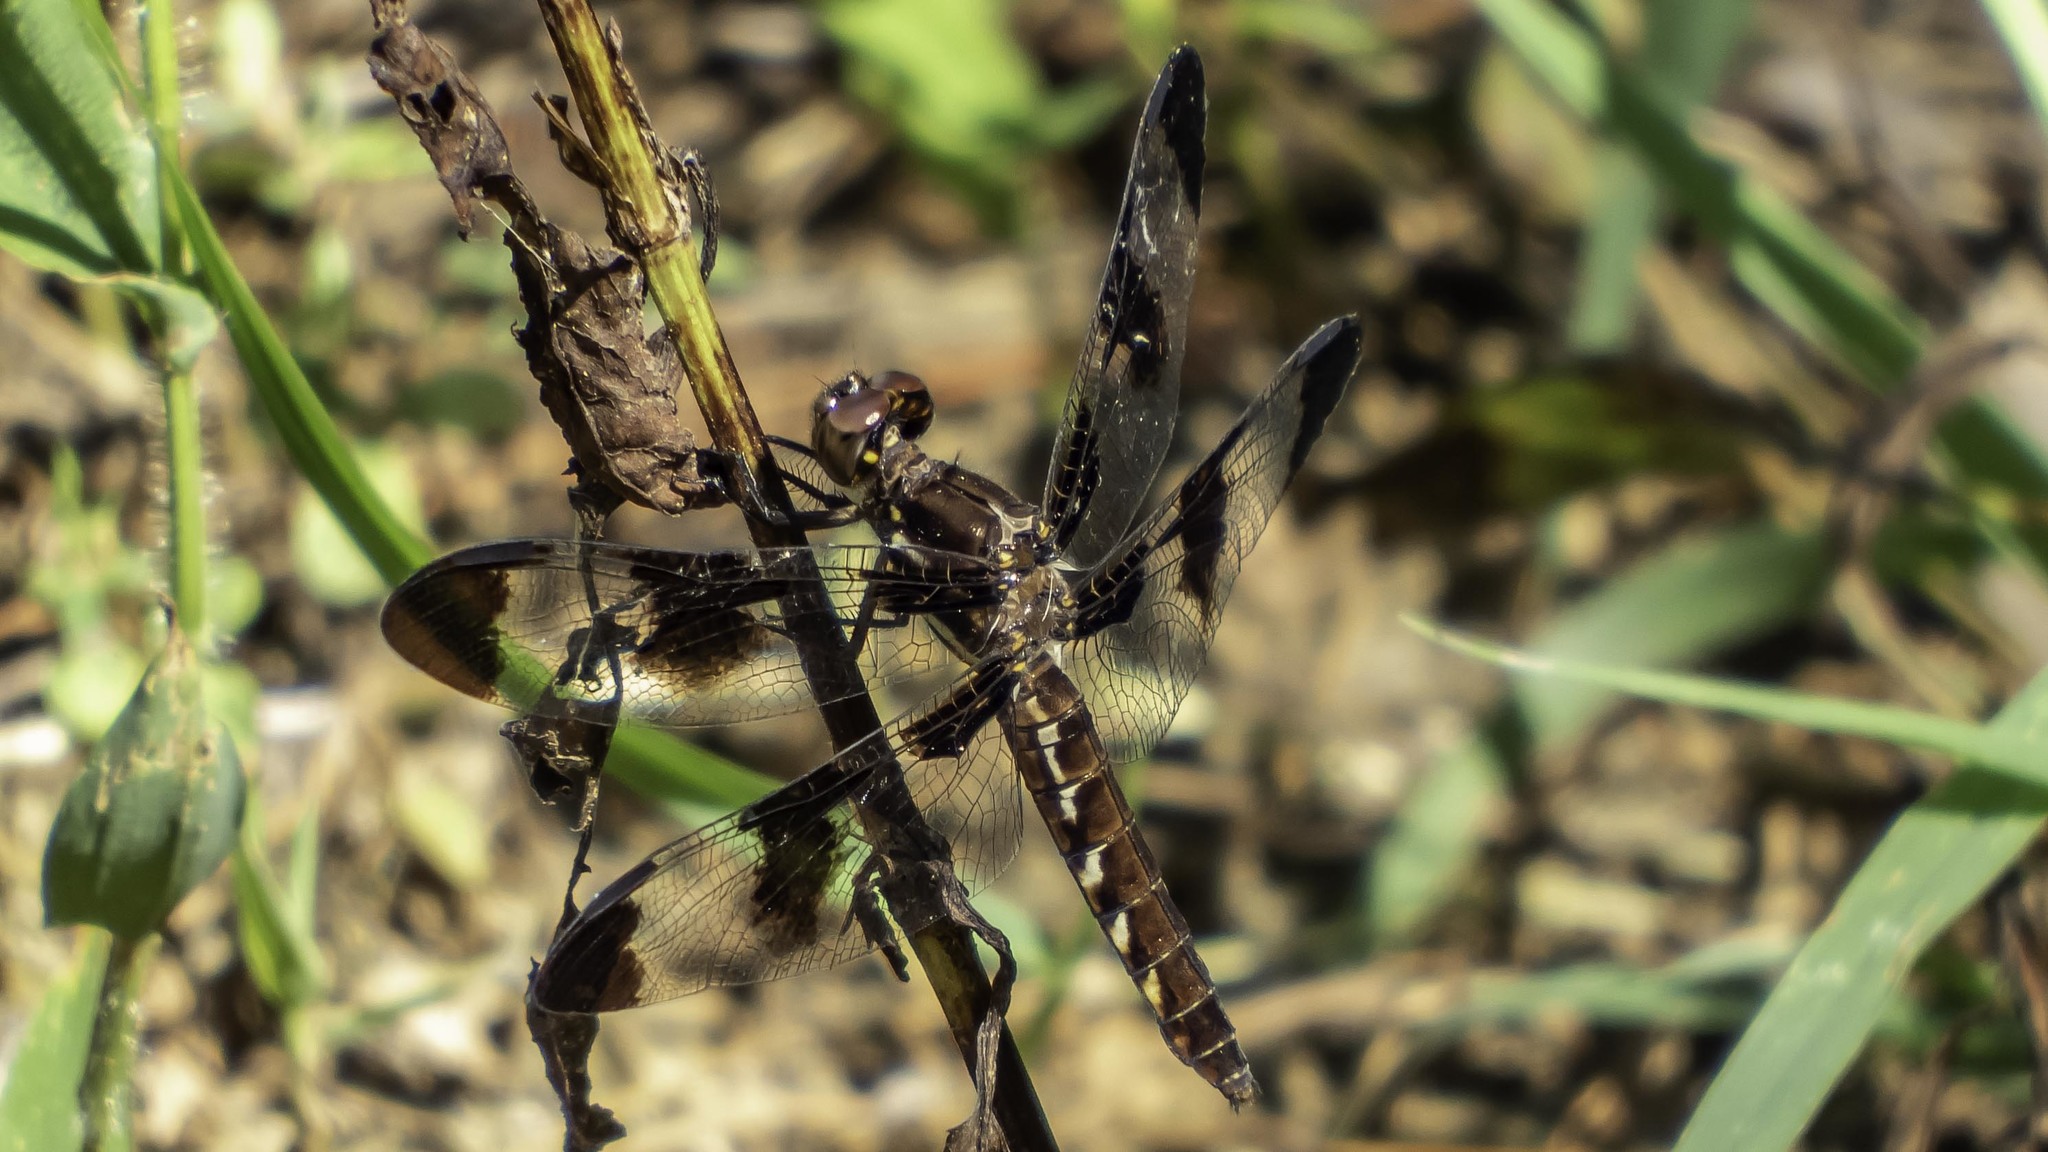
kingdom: Animalia
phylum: Arthropoda
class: Insecta
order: Odonata
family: Libellulidae
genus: Plathemis
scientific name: Plathemis lydia
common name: Common whitetail
